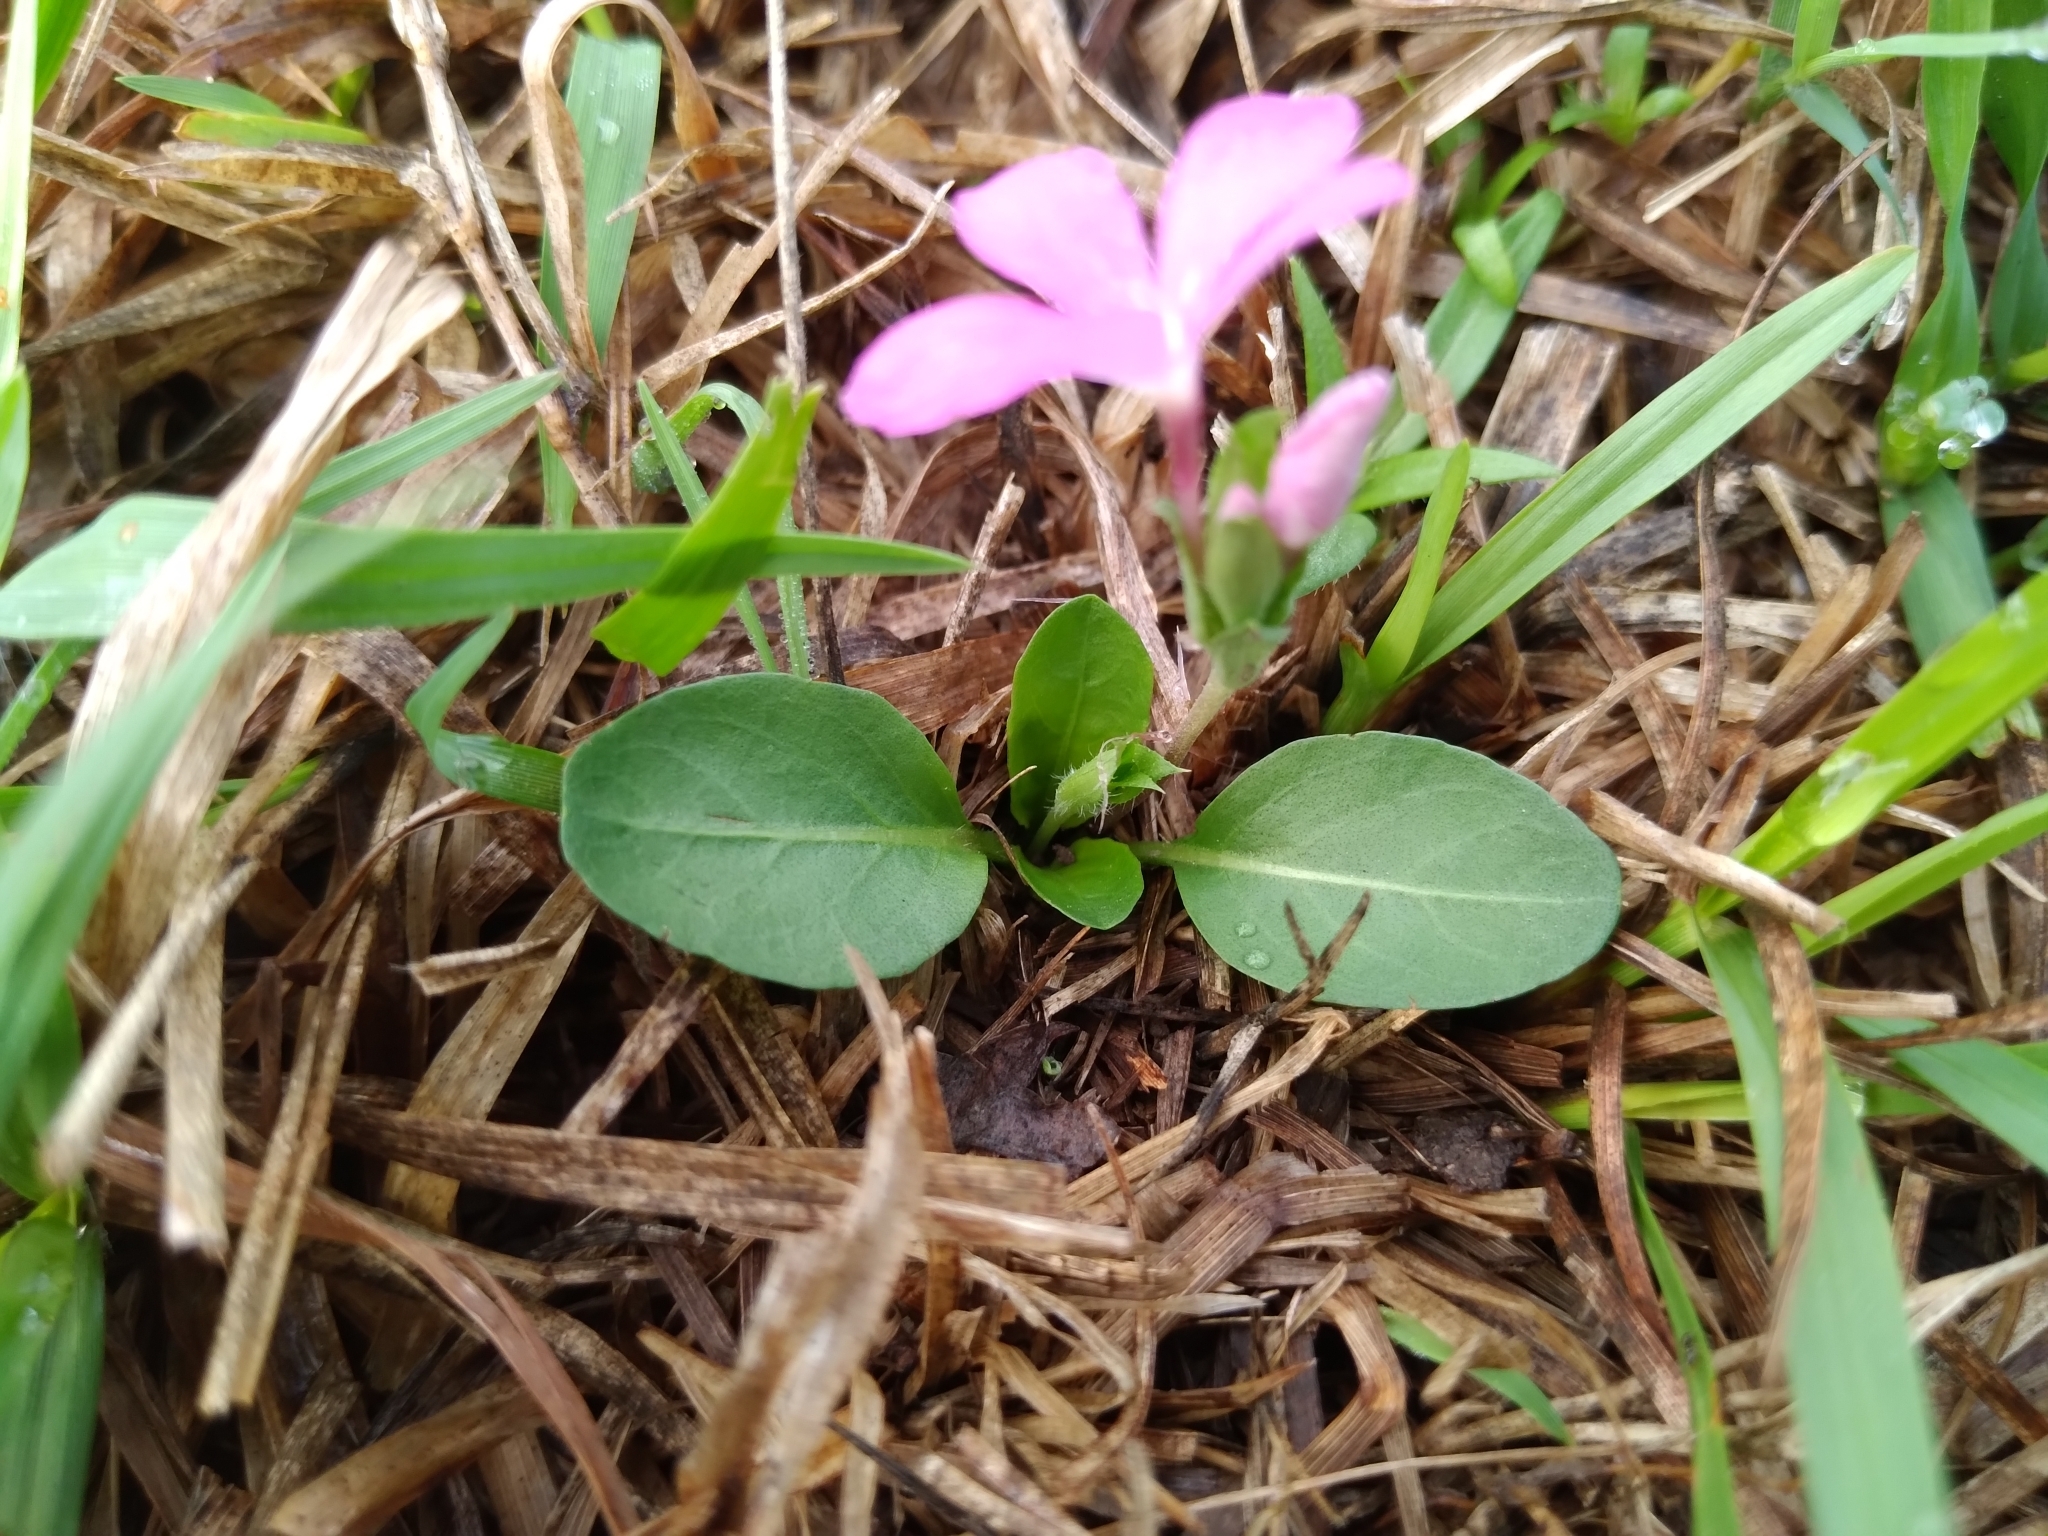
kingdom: Plantae
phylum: Tracheophyta
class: Magnoliopsida
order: Lamiales
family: Acanthaceae
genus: Stenandrium
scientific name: Stenandrium dulce
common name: Pinklet
